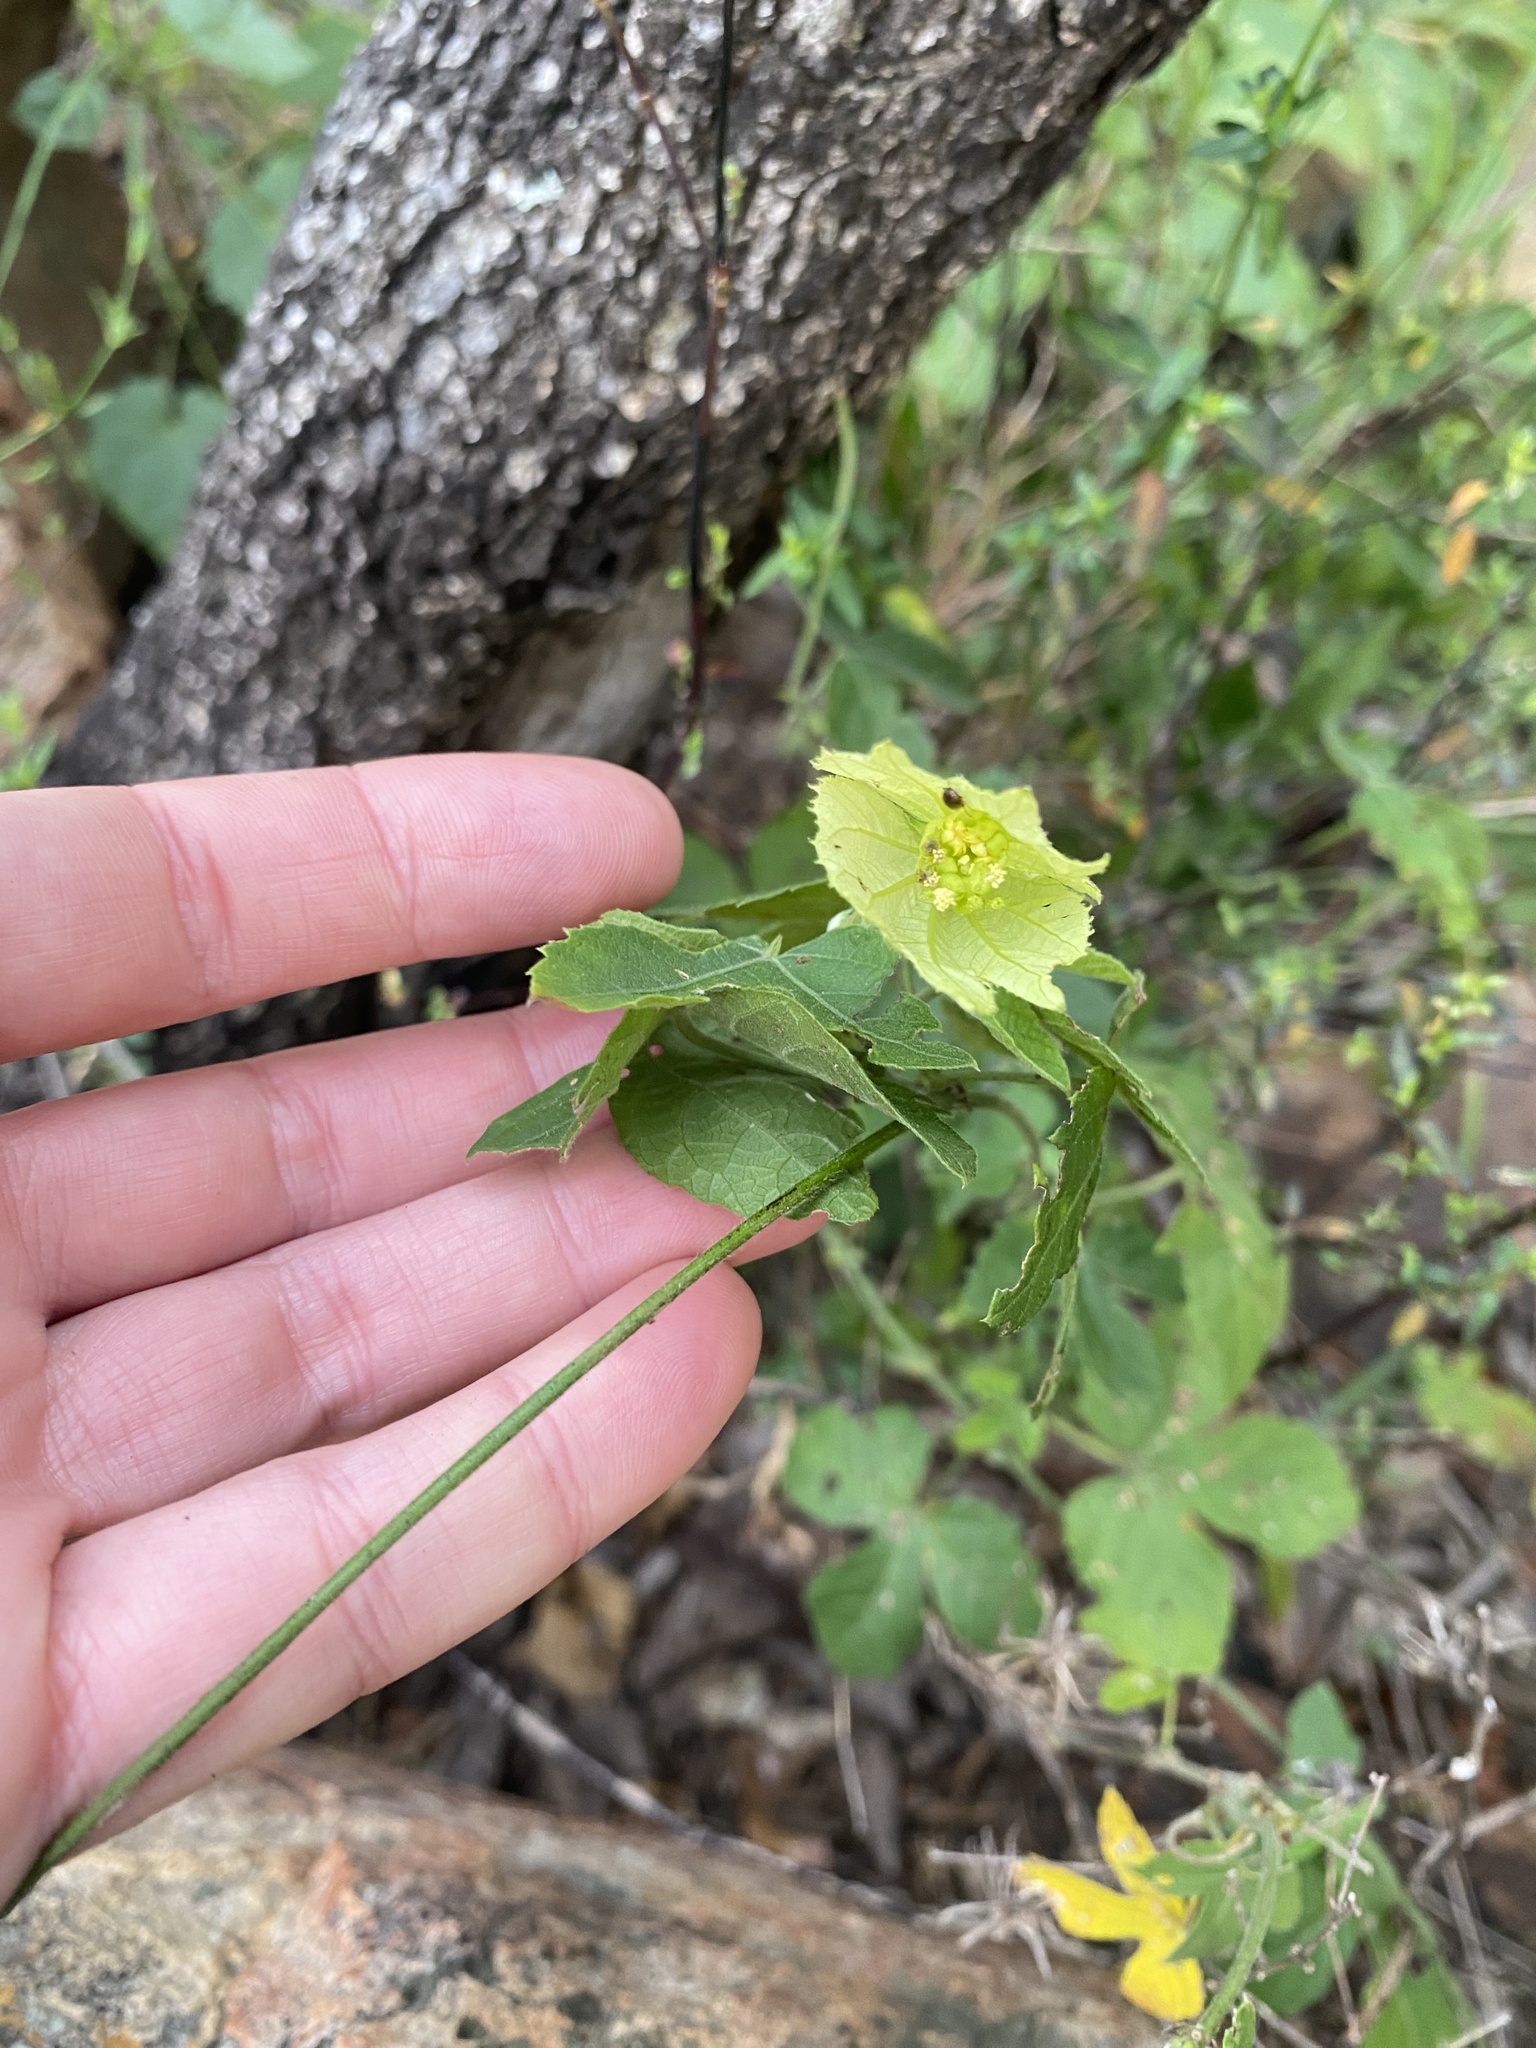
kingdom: Plantae
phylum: Tracheophyta
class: Magnoliopsida
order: Malpighiales
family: Euphorbiaceae
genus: Dalechampia
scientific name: Dalechampia capensis
